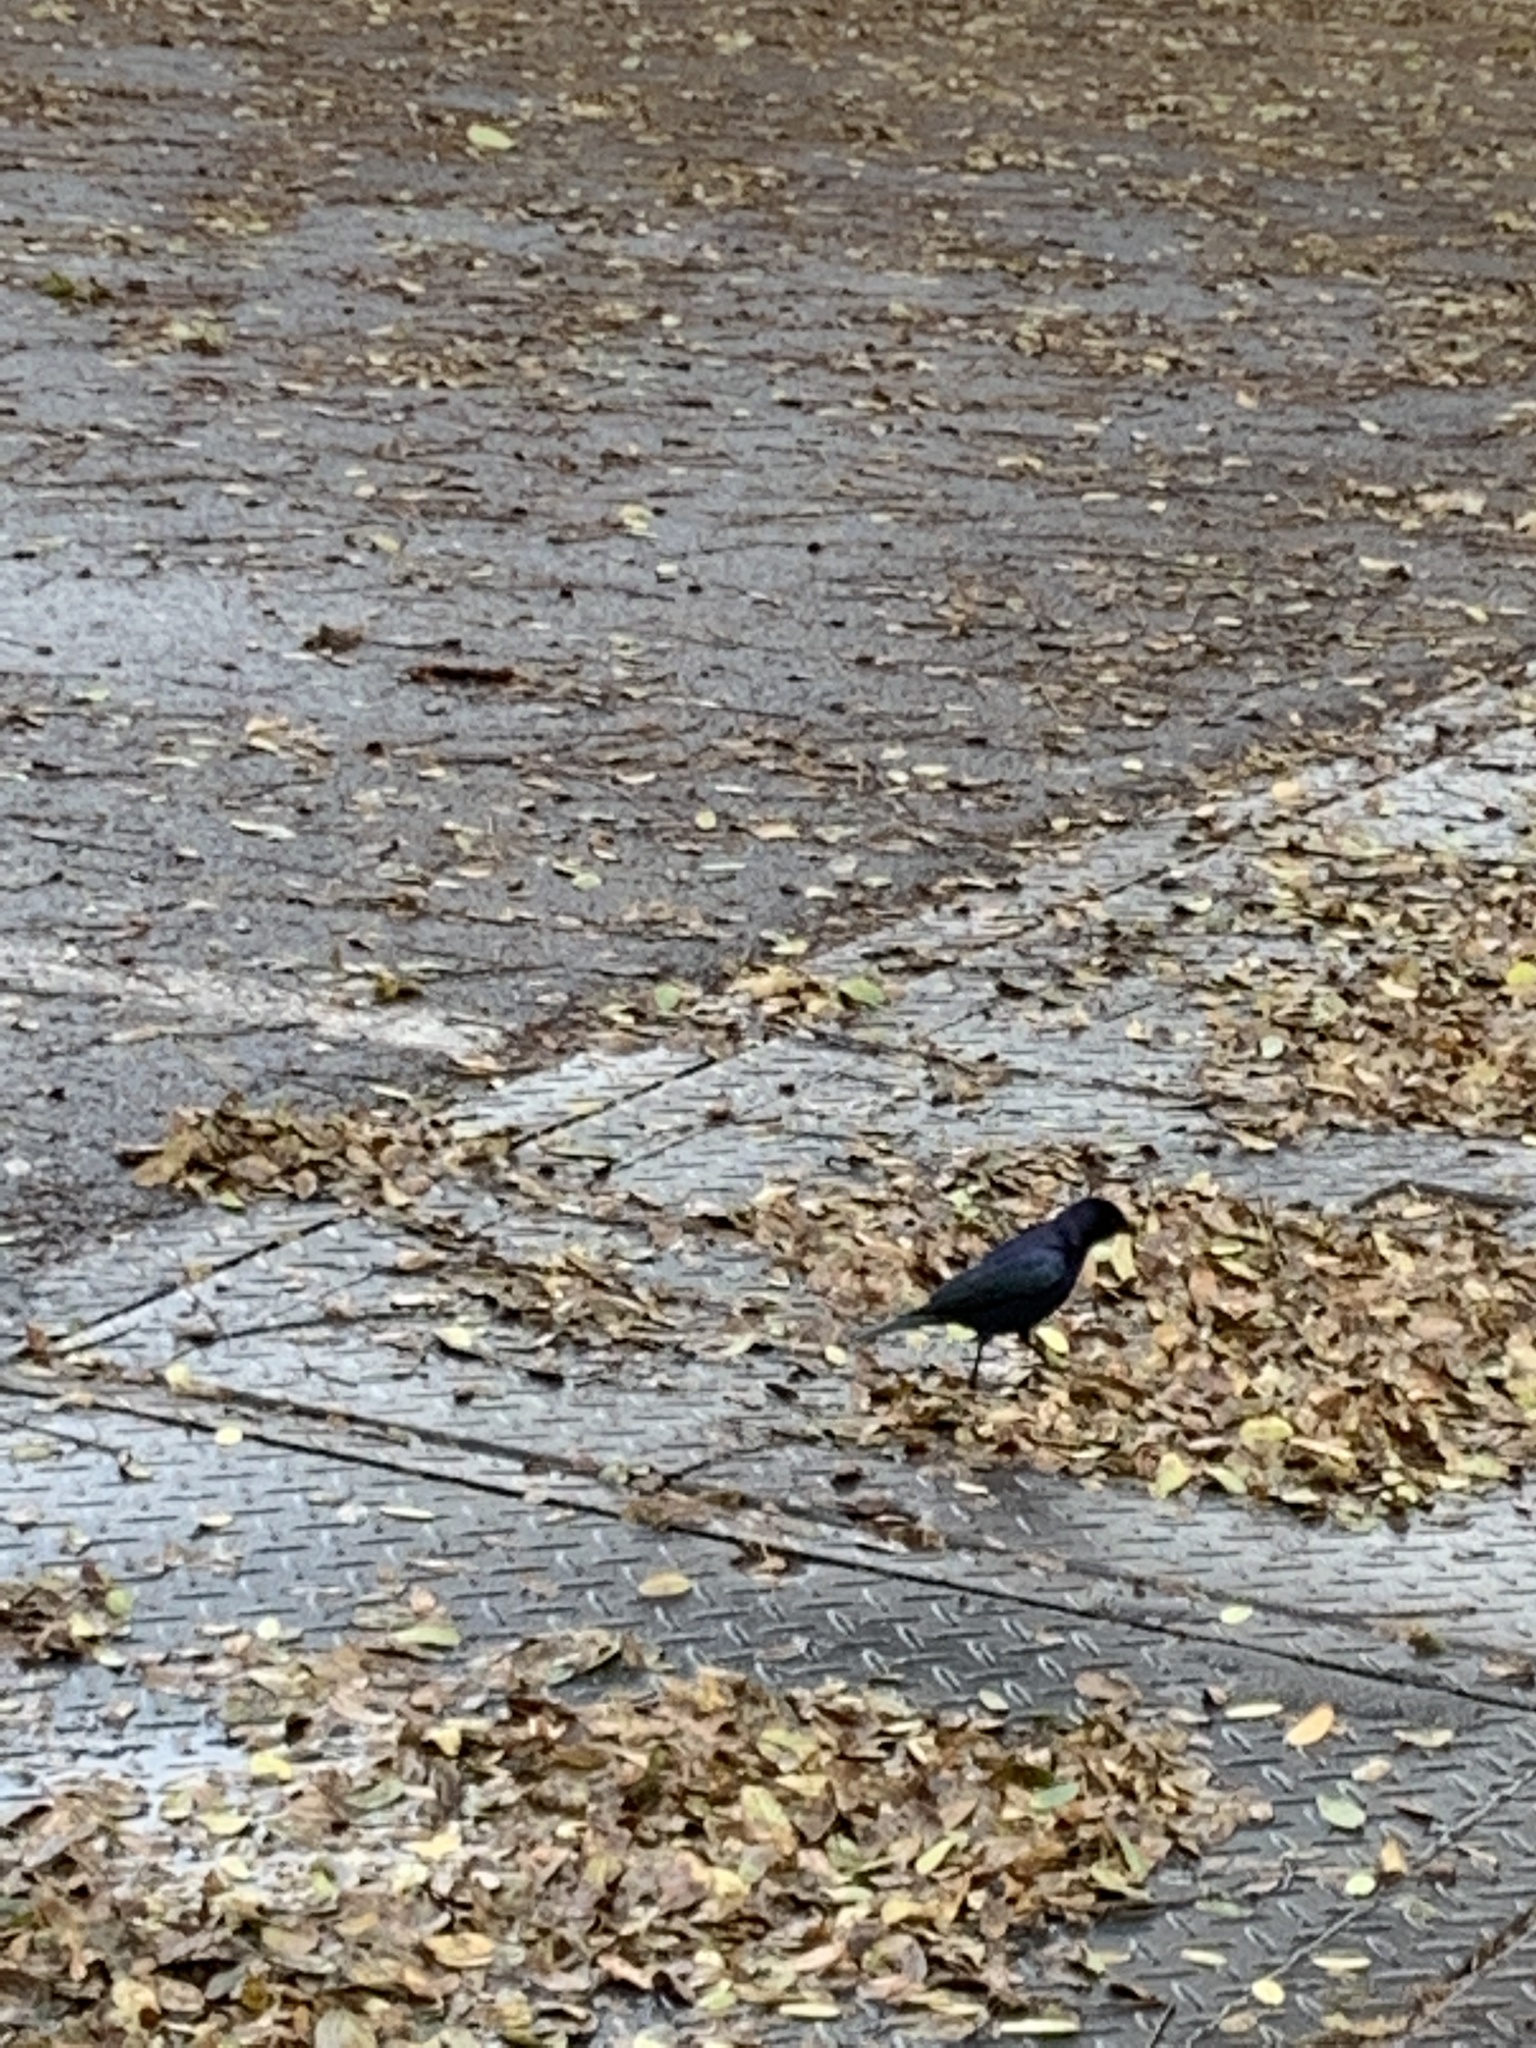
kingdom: Animalia
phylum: Chordata
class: Aves
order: Passeriformes
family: Icteridae
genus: Molothrus
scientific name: Molothrus bonariensis
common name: Shiny cowbird
